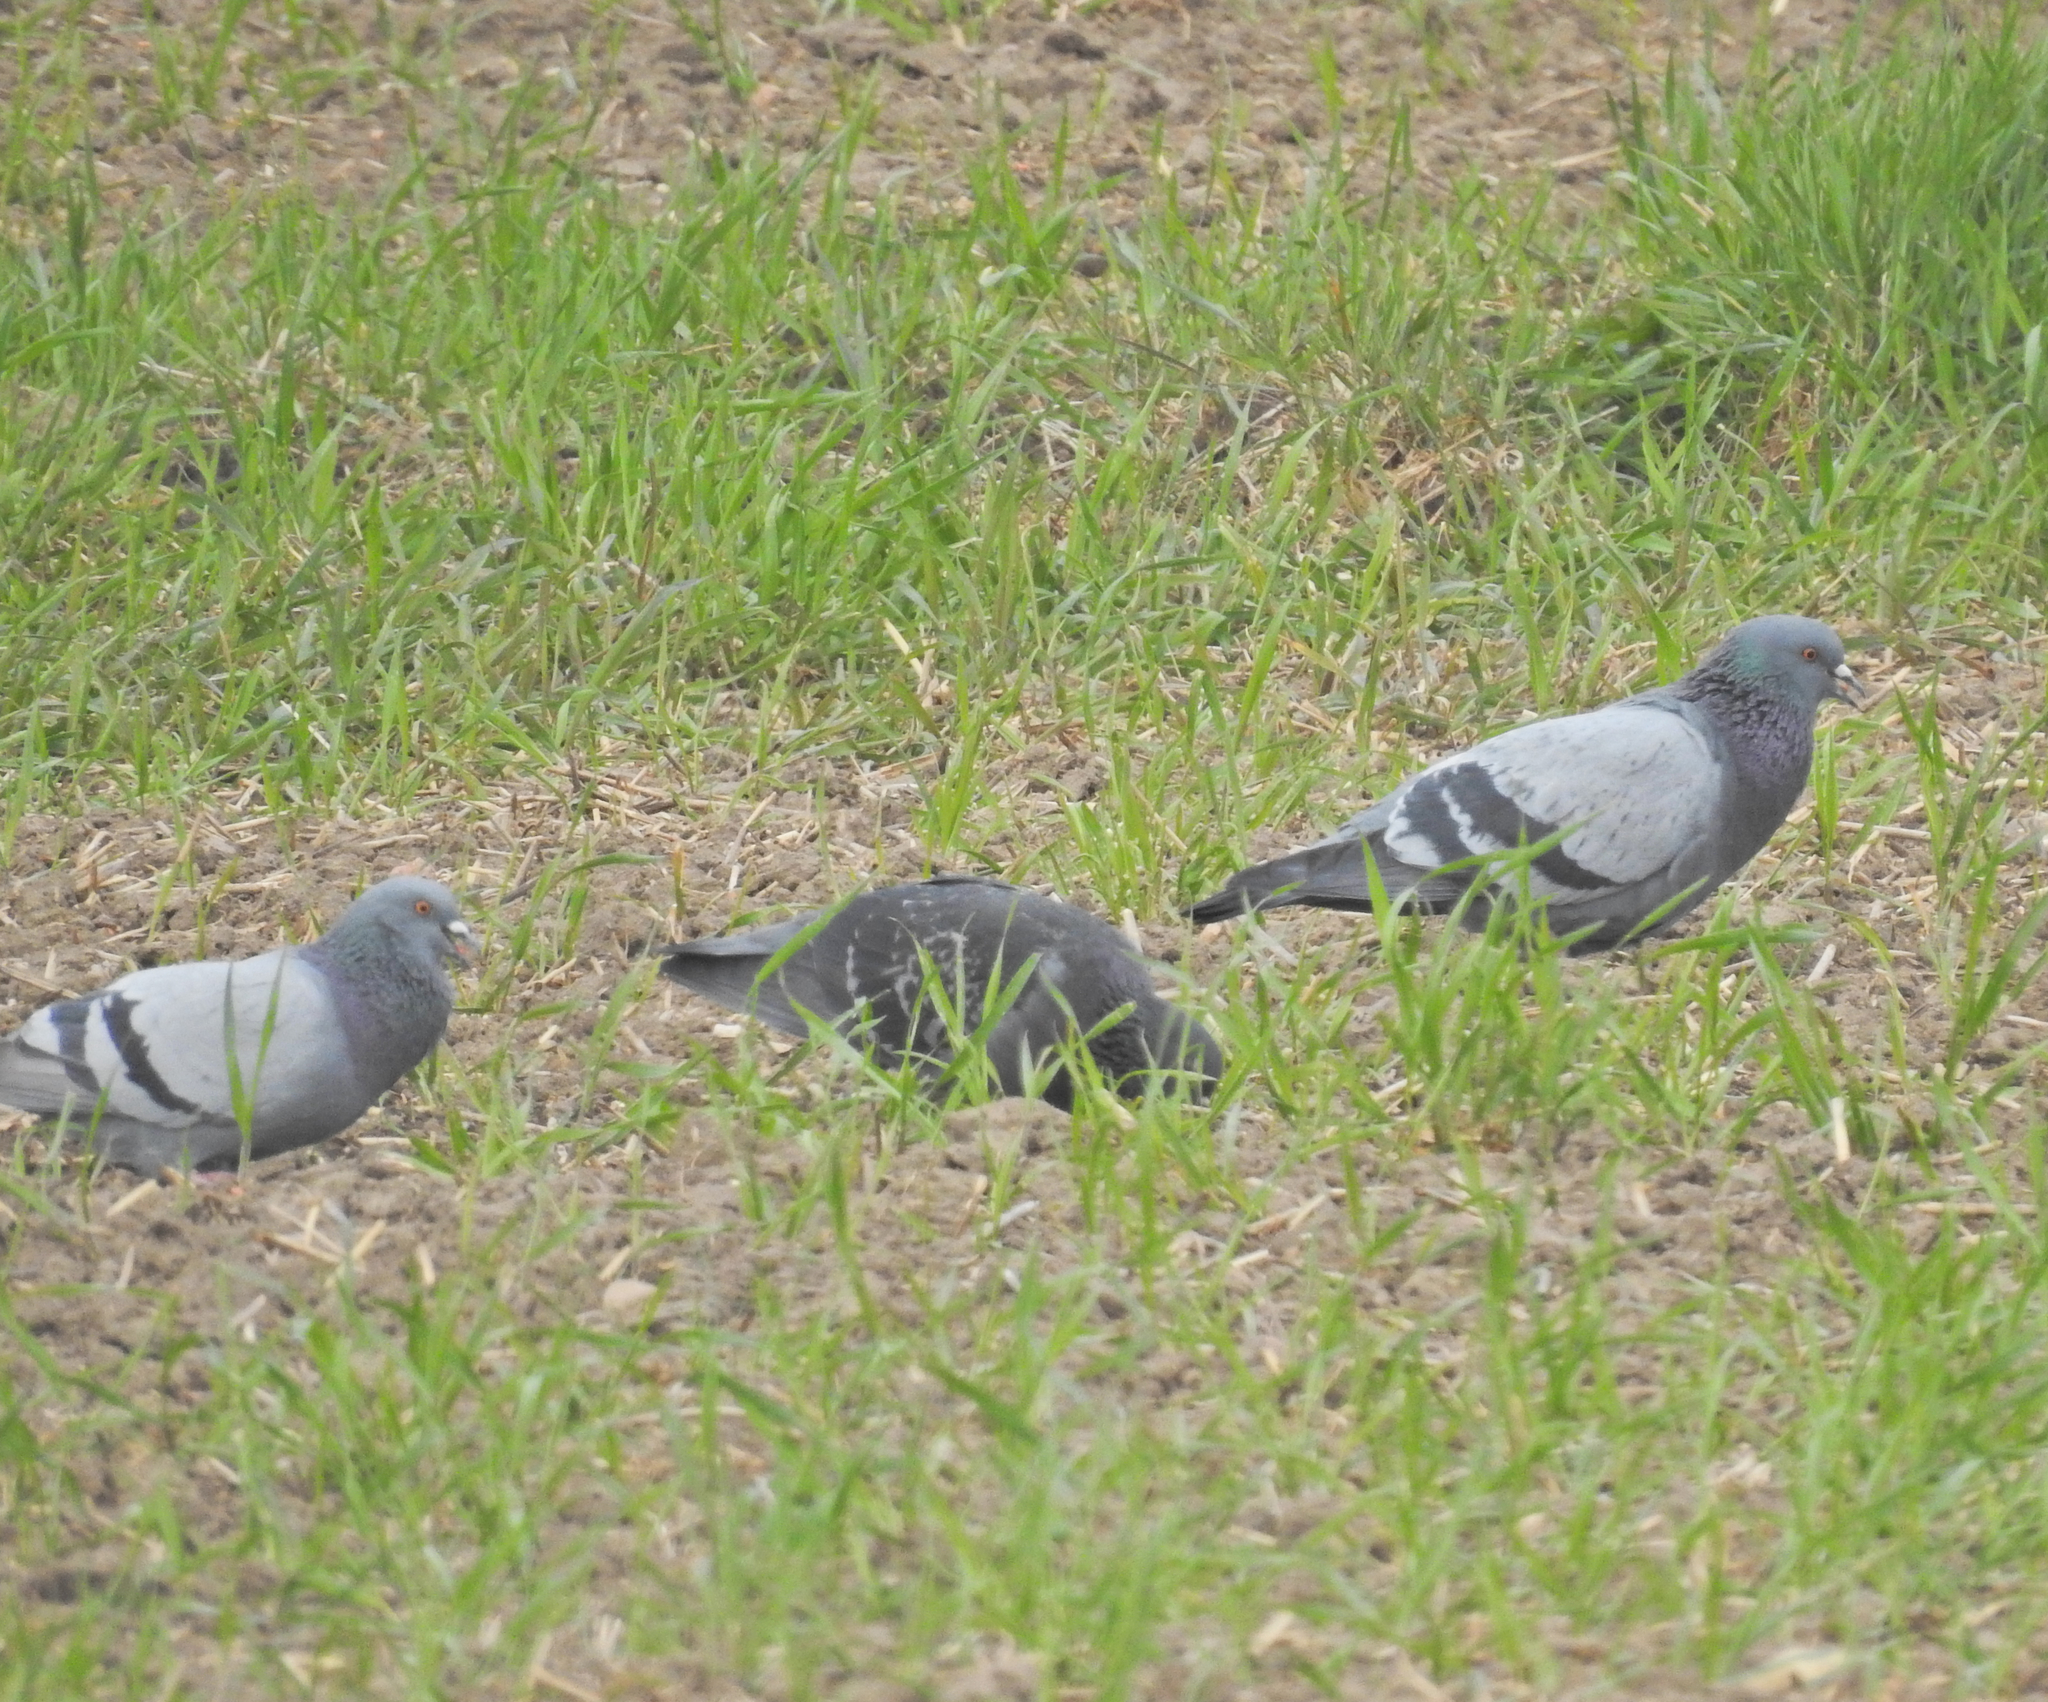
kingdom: Animalia
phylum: Chordata
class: Aves
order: Columbiformes
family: Columbidae
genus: Columba
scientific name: Columba livia
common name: Rock pigeon
